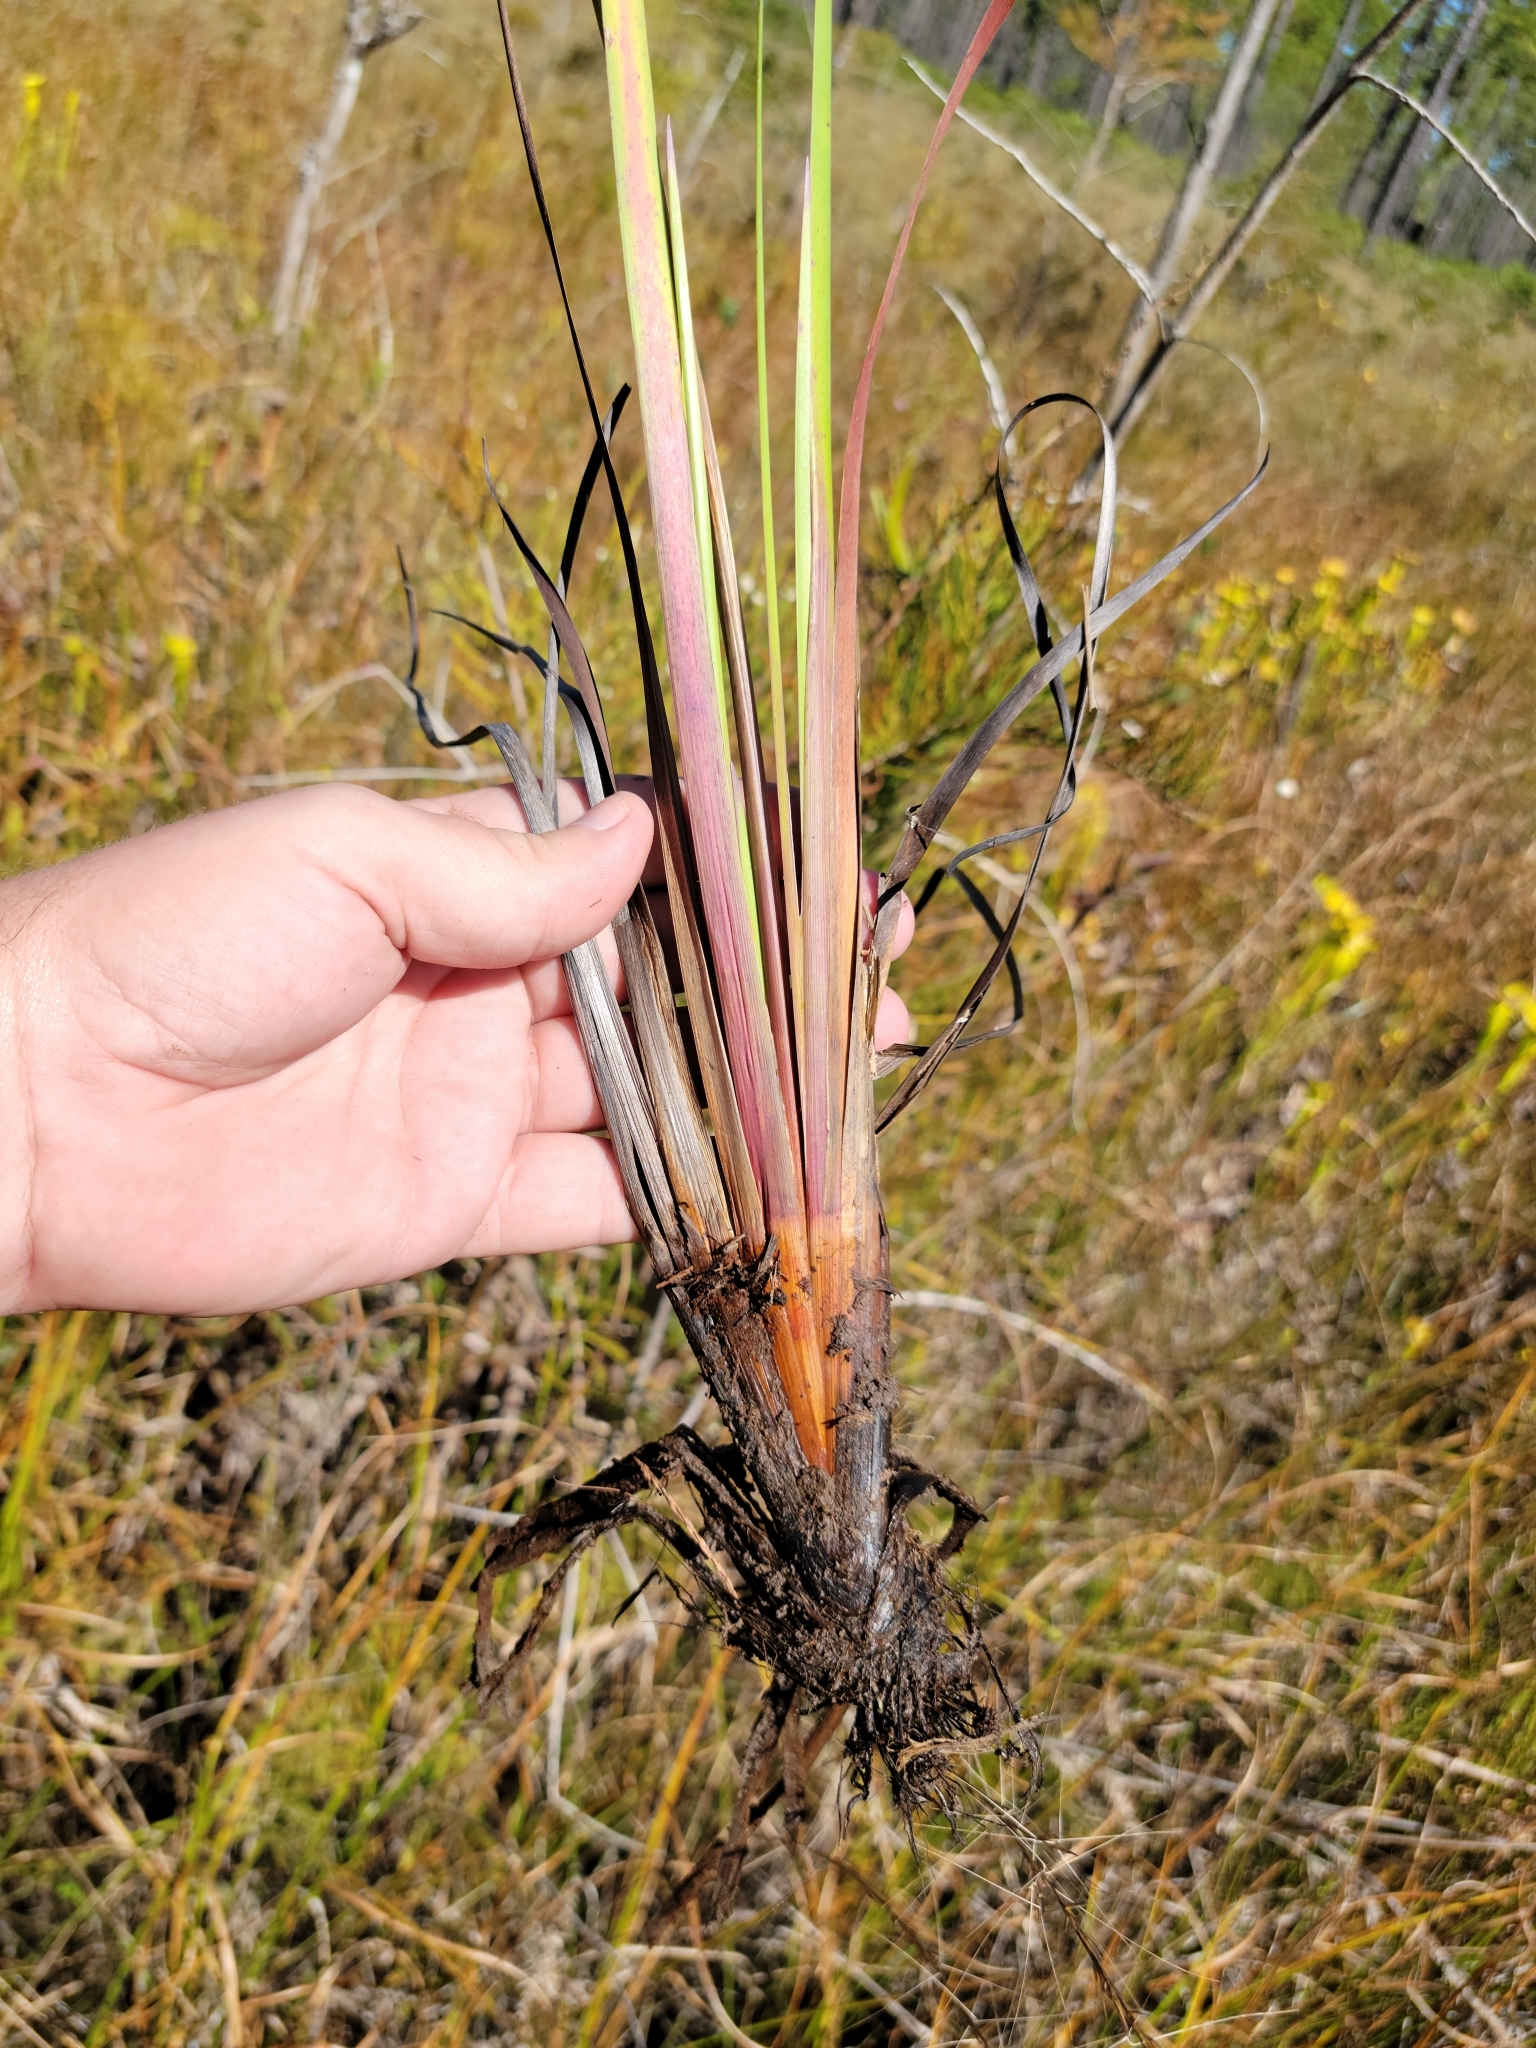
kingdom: Plantae
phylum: Tracheophyta
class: Liliopsida
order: Poales
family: Xyridaceae
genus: Xyris
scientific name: Xyris stricta
